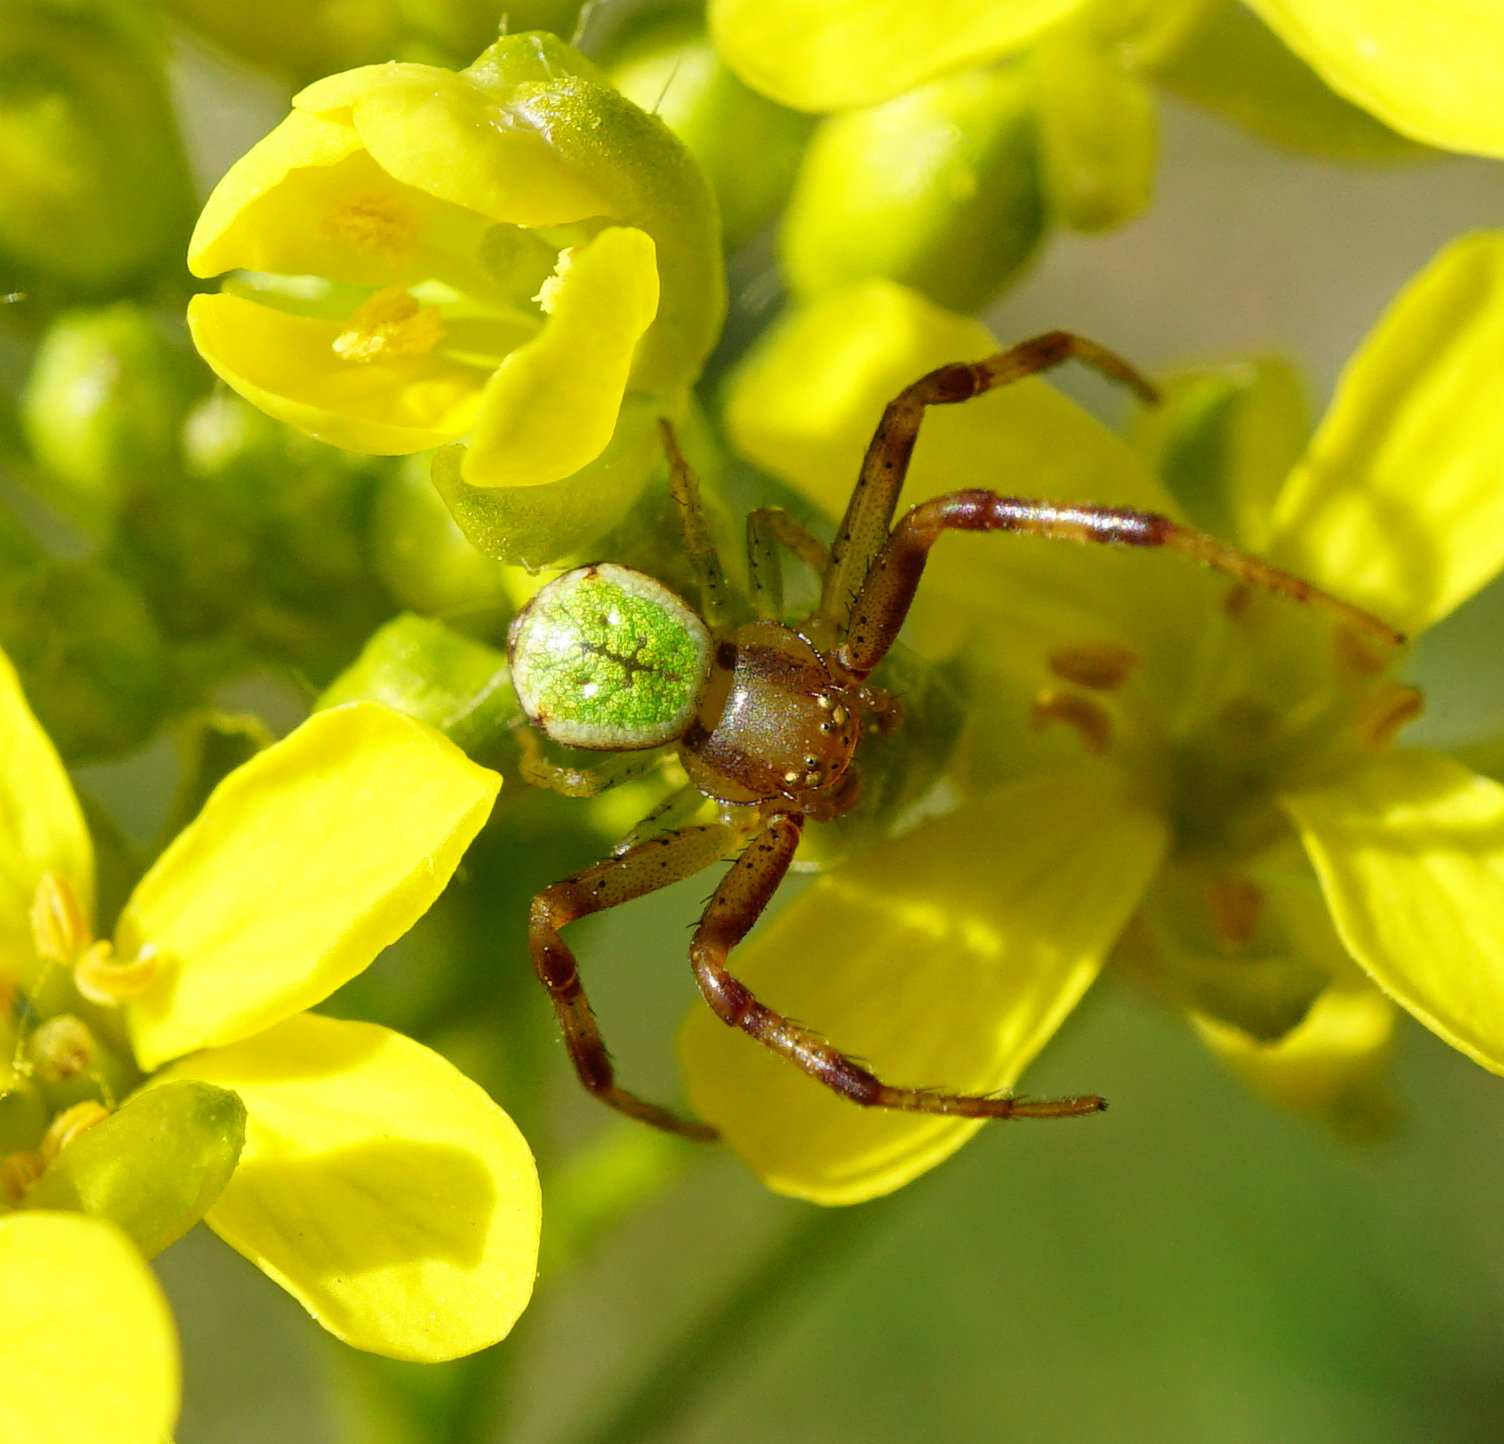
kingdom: Animalia
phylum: Arthropoda
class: Arachnida
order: Araneae
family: Thomisidae
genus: Ebrechtella
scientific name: Ebrechtella tricuspidata
